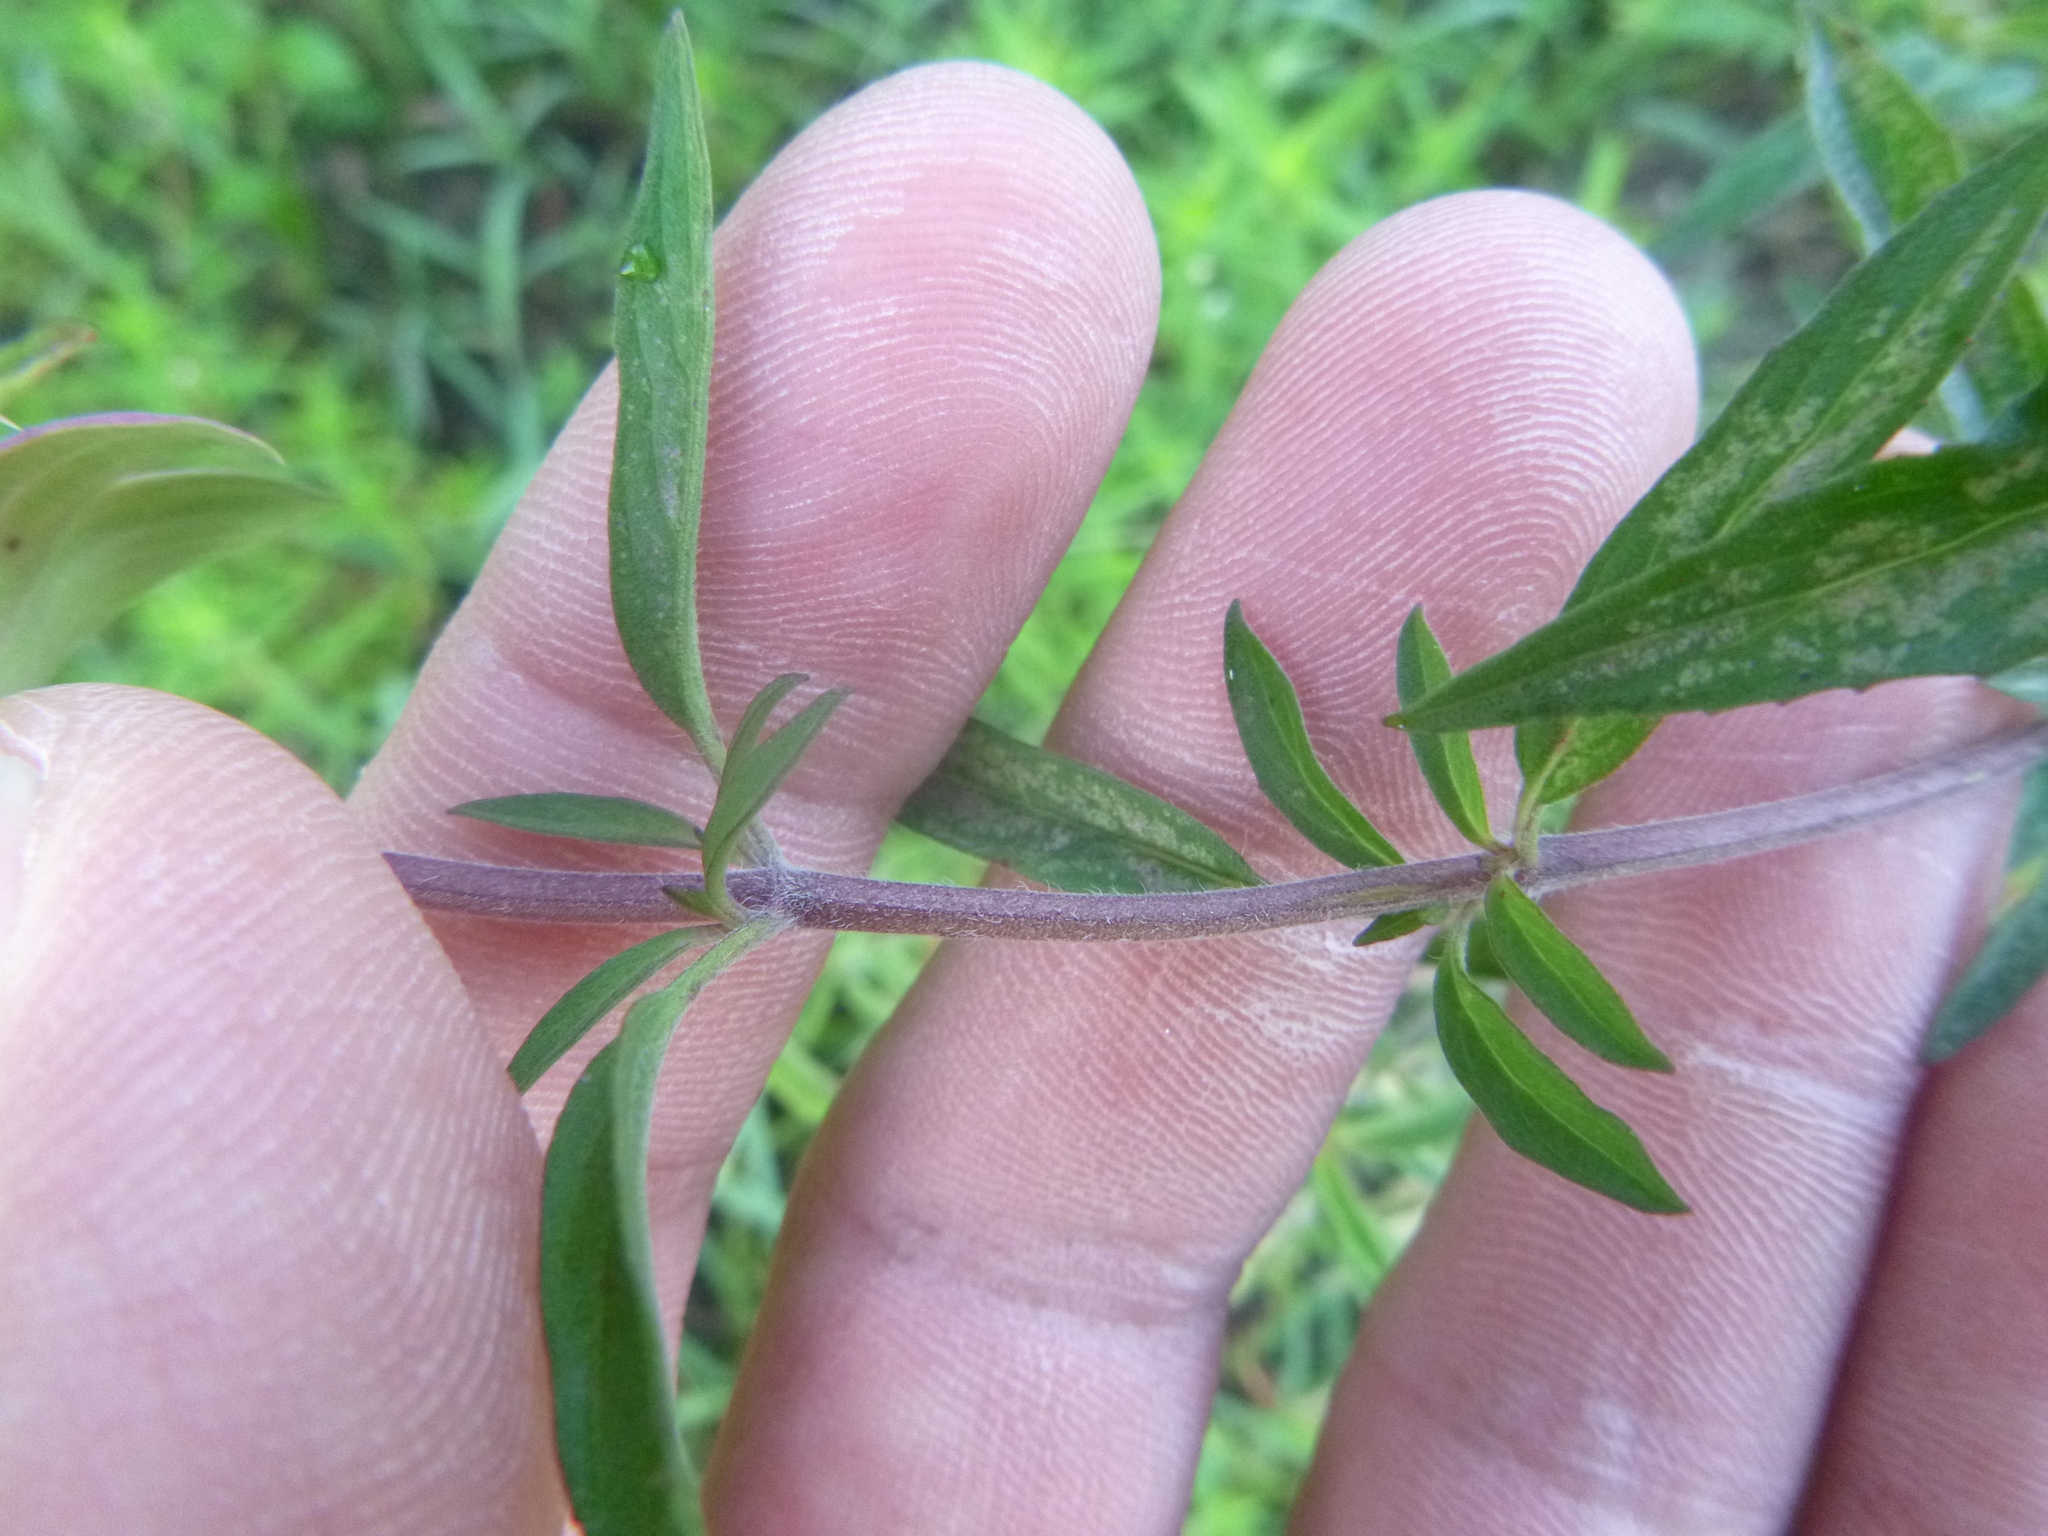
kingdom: Plantae
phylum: Tracheophyta
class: Magnoliopsida
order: Lamiales
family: Lamiaceae
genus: Monarda
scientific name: Monarda punctata
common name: Dotted monarda
